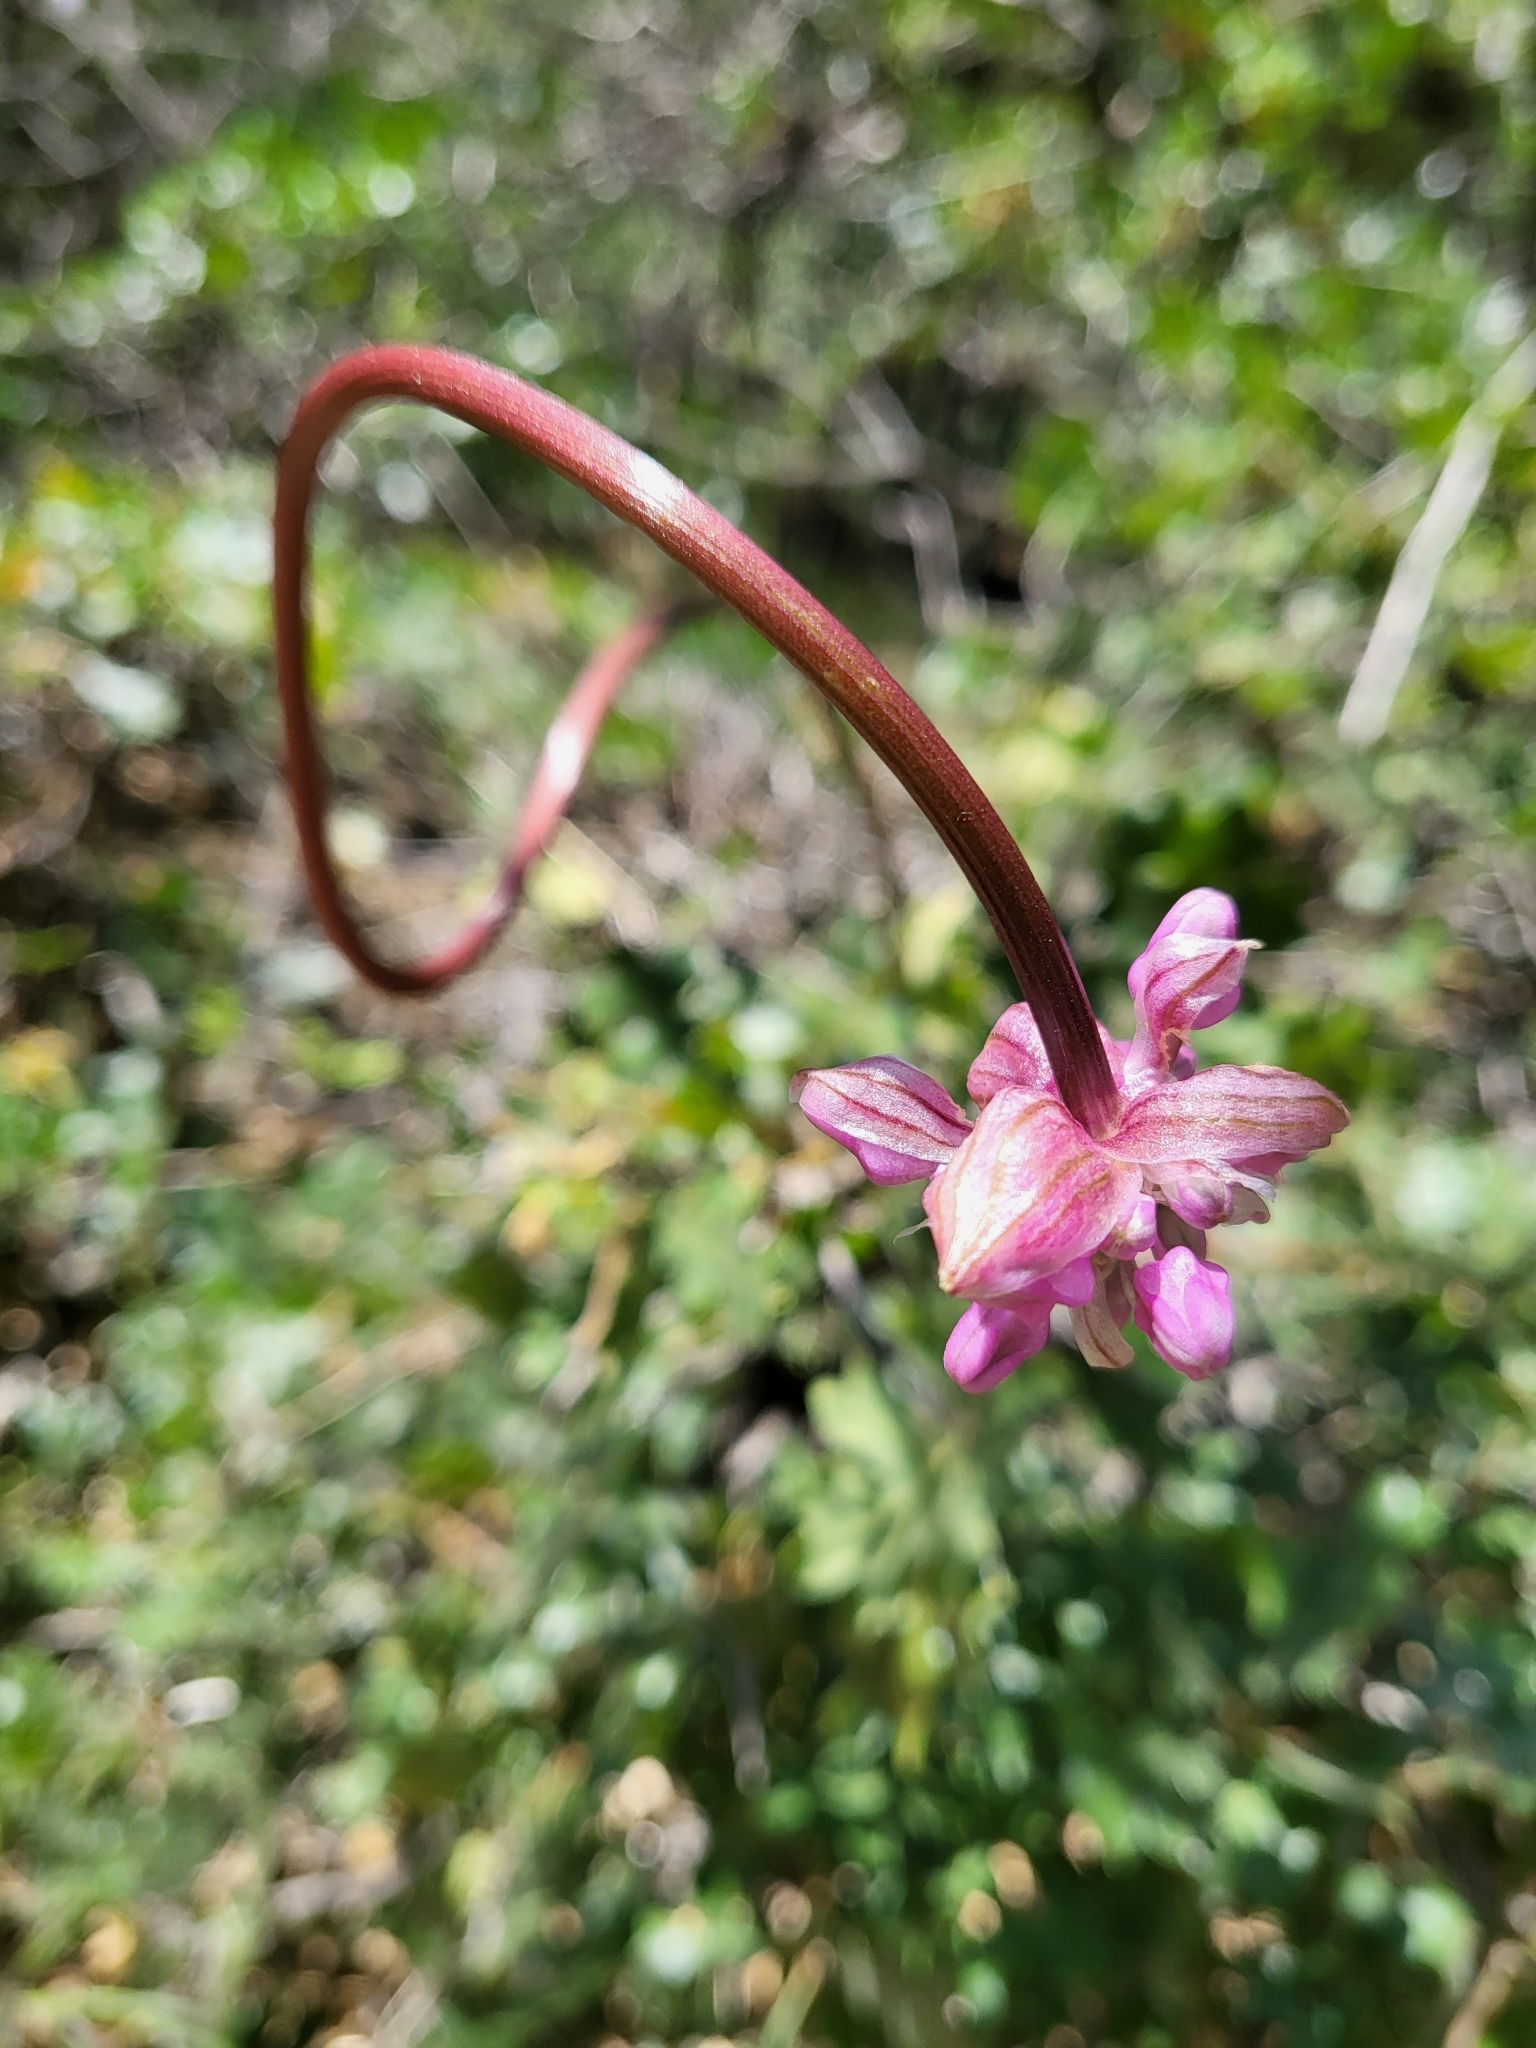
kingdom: Plantae
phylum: Tracheophyta
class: Liliopsida
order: Asparagales
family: Asparagaceae
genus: Dichelostemma
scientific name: Dichelostemma volubile
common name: Trining brodiaea
